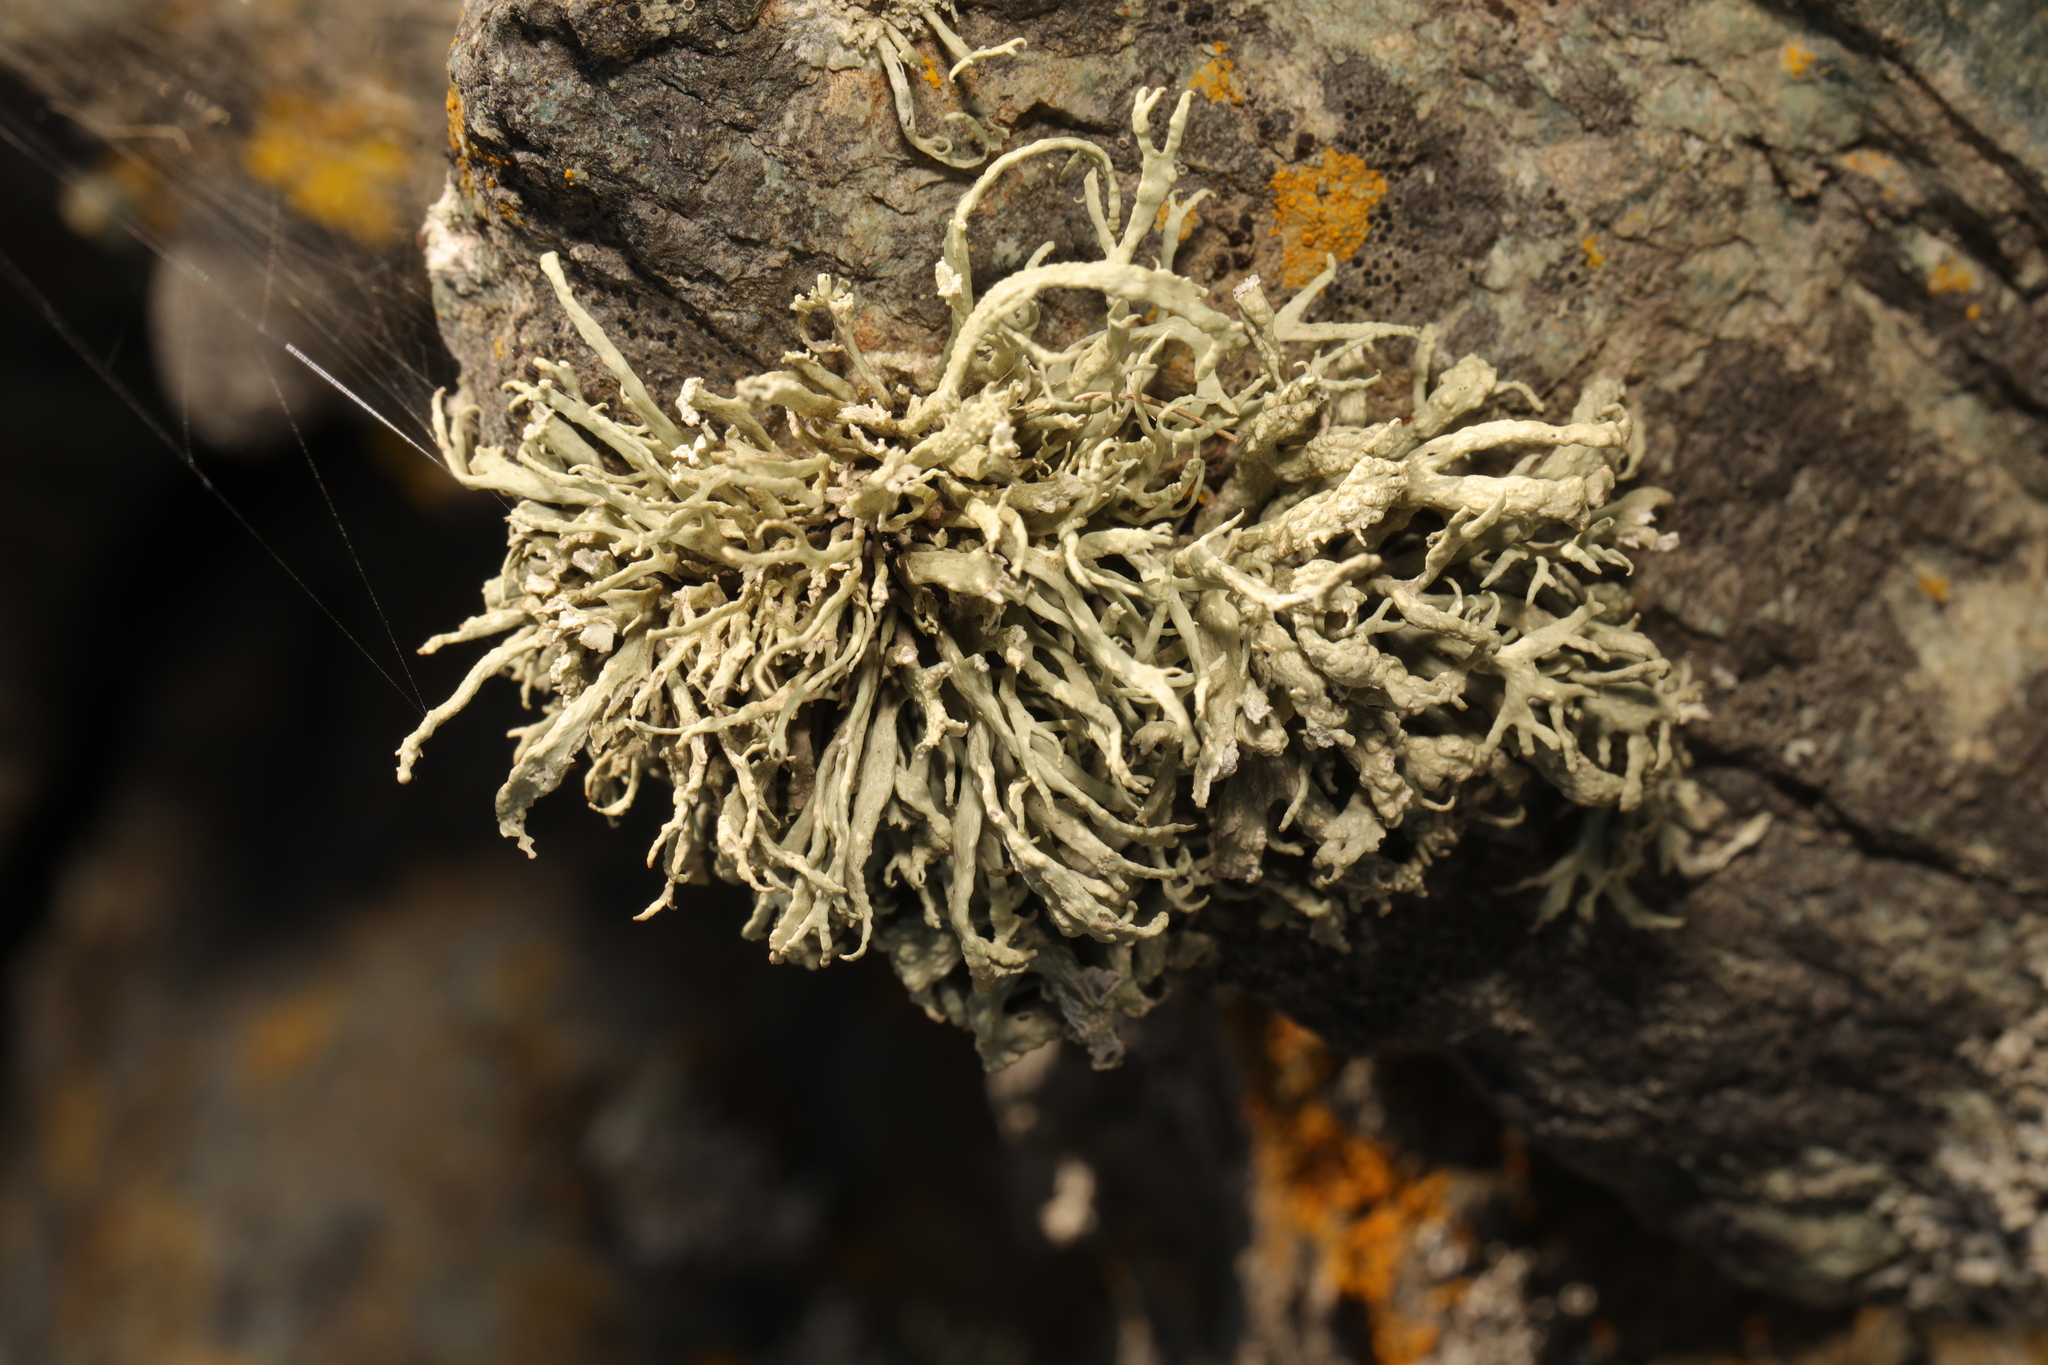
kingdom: Fungi
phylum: Ascomycota
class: Lecanoromycetes
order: Lecanorales
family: Ramalinaceae
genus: Ramalina
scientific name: Ramalina siliquosa
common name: Sea ivory
